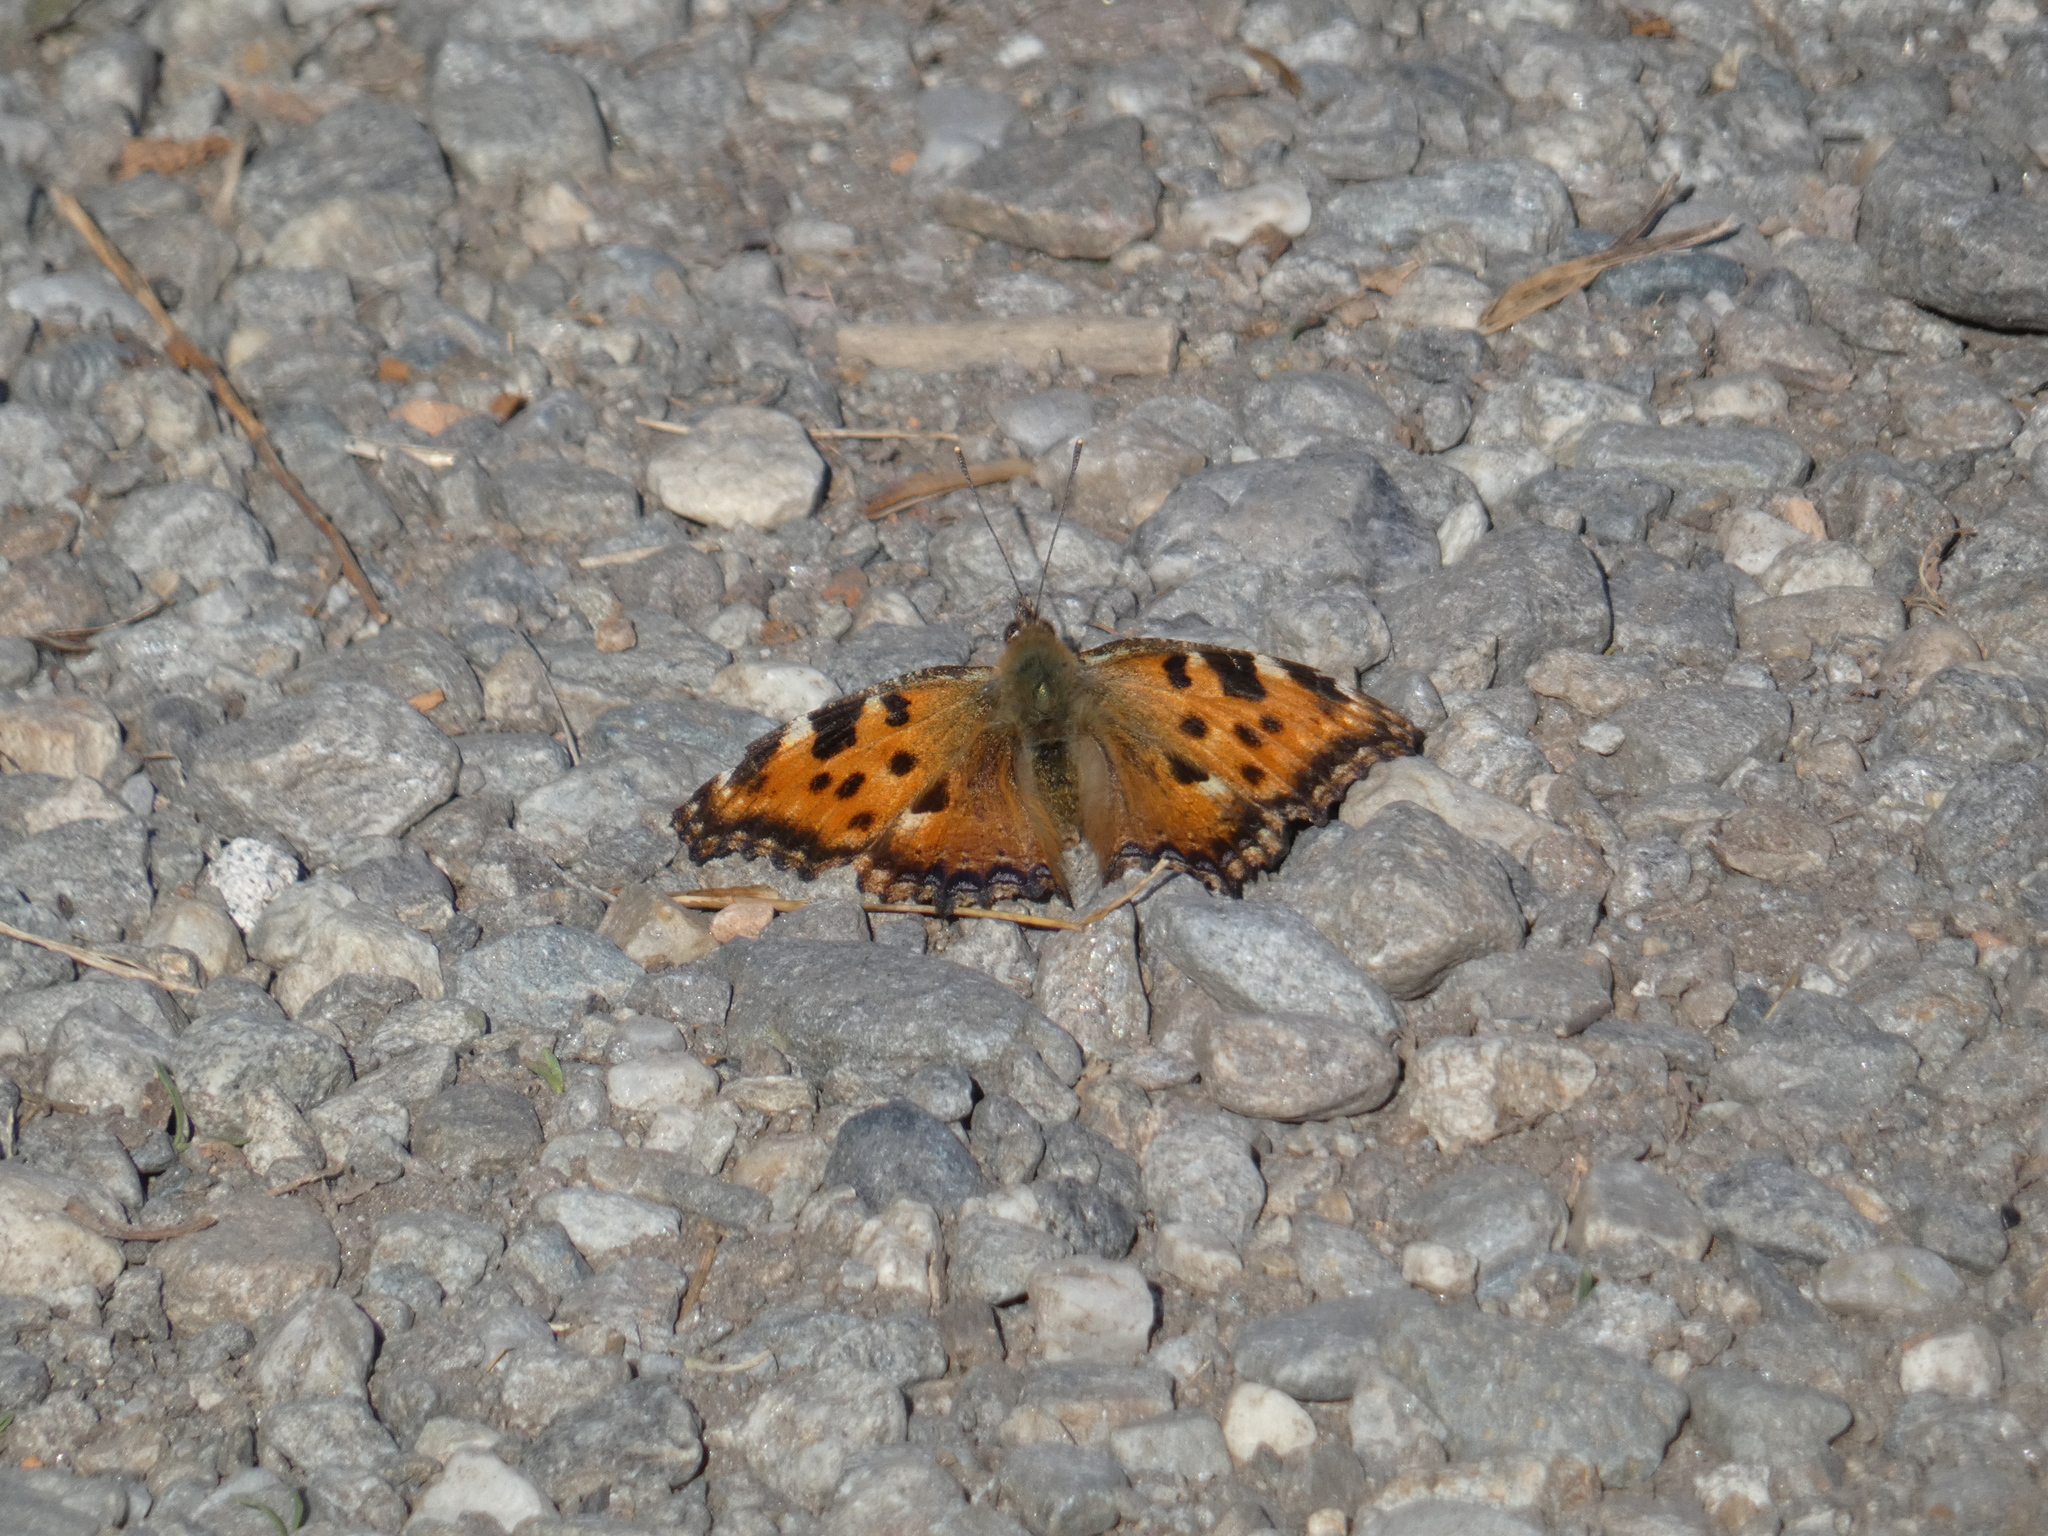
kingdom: Animalia
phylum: Arthropoda
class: Insecta
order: Lepidoptera
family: Nymphalidae
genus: Nymphalis
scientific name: Nymphalis polychloros
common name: Large tortoiseshell
